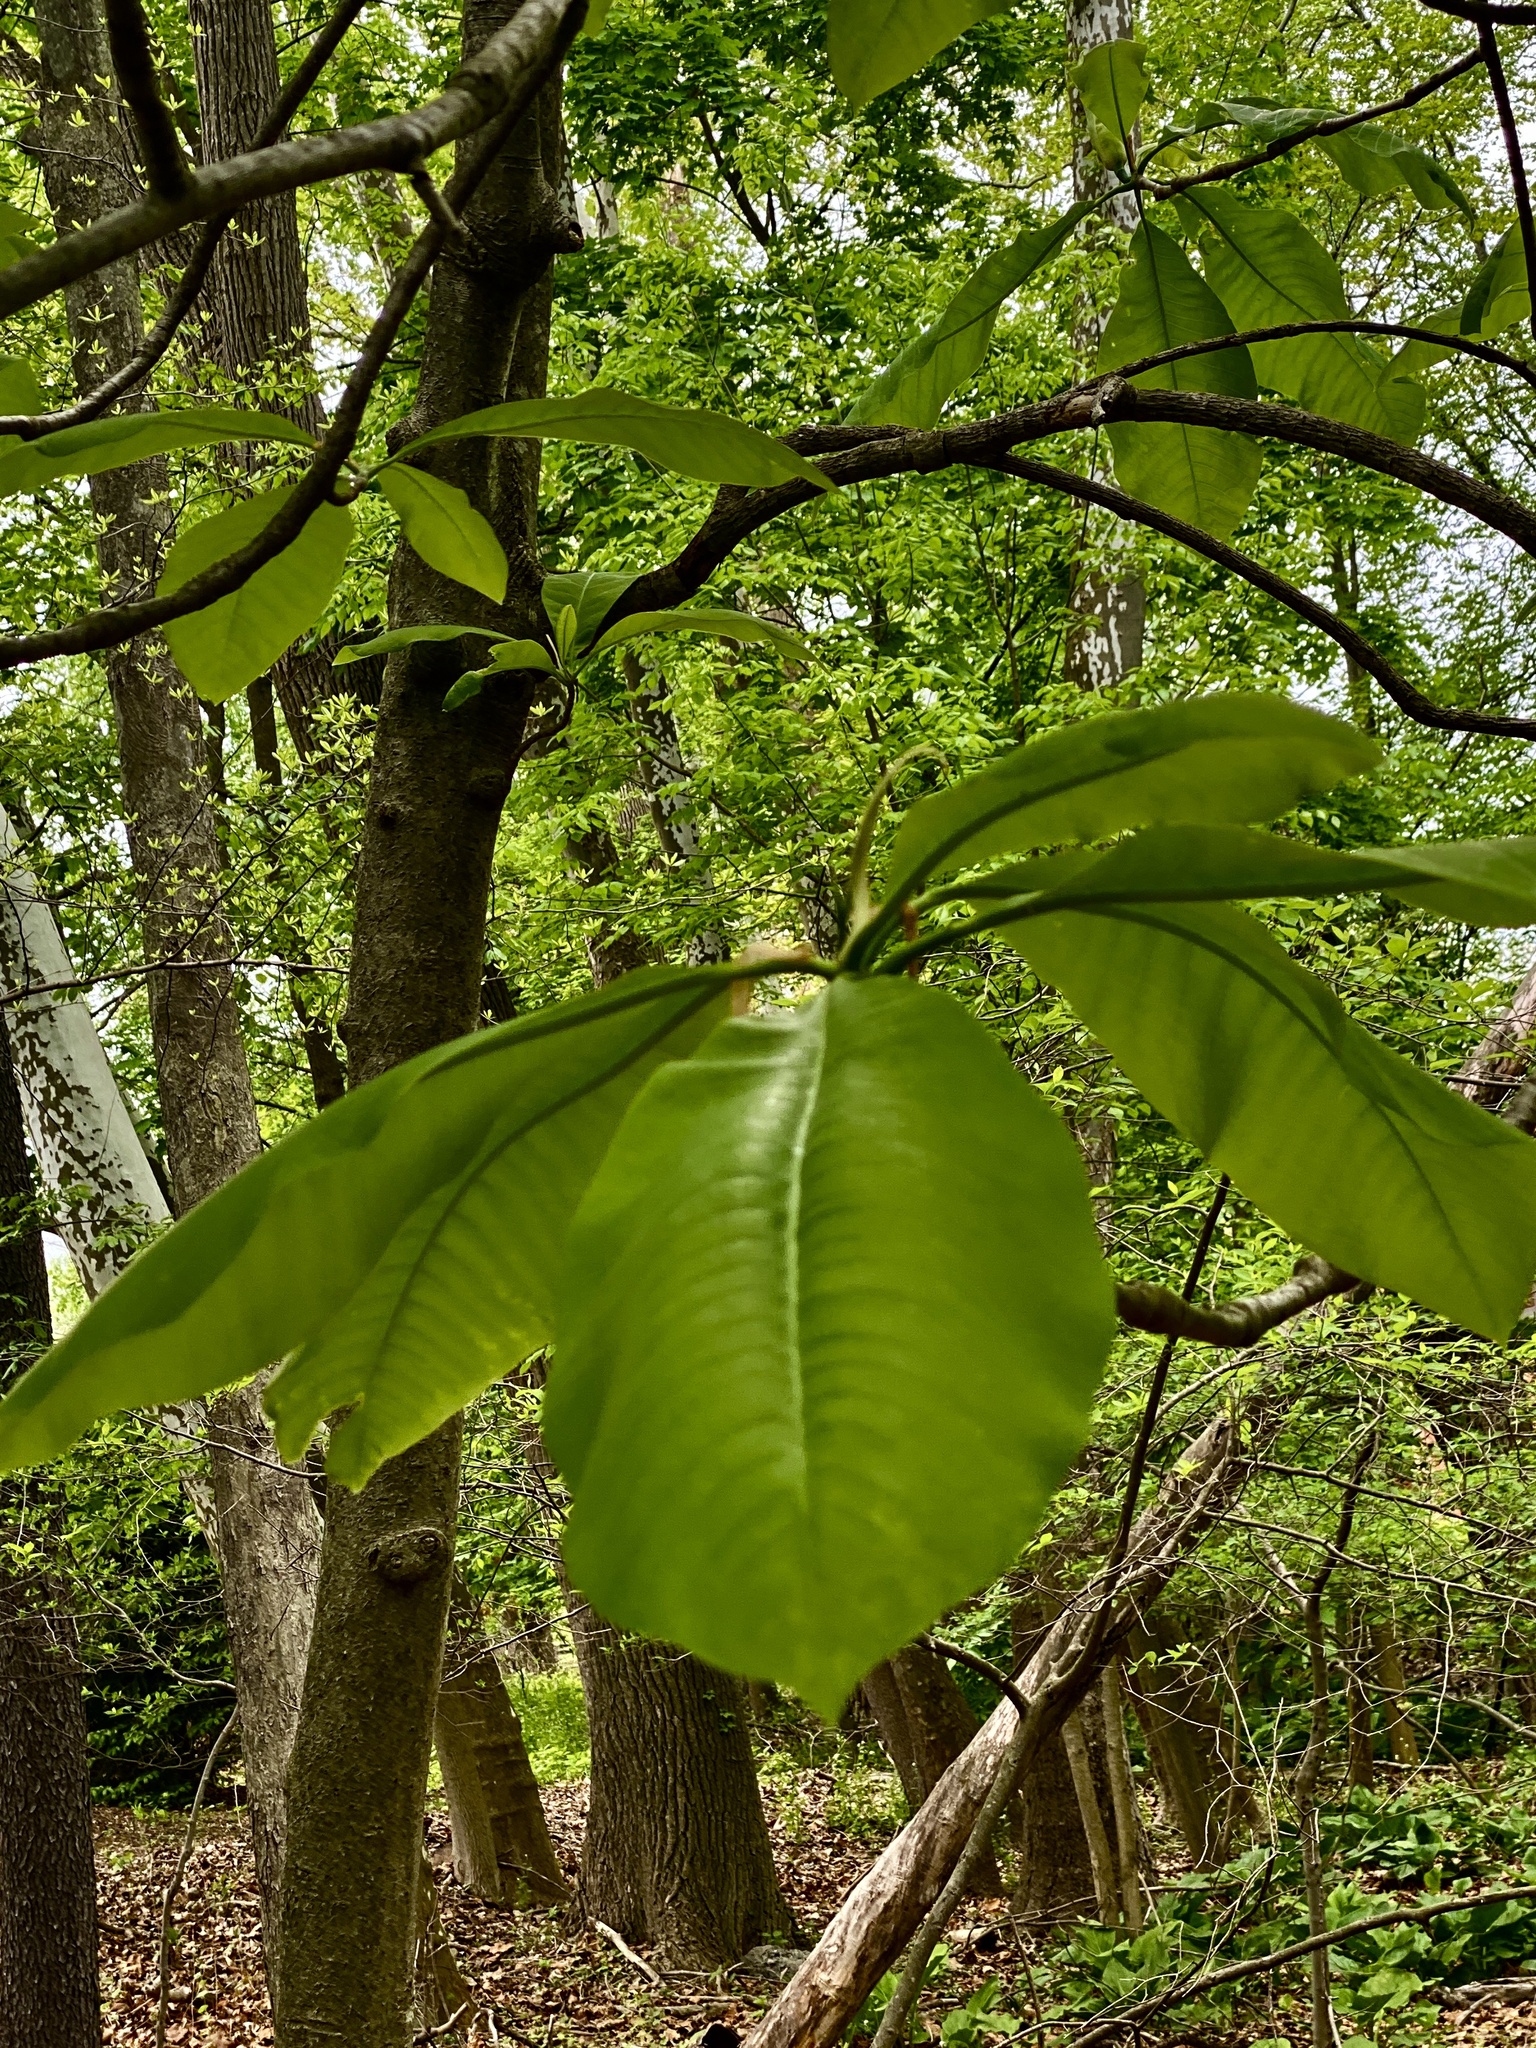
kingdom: Plantae
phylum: Tracheophyta
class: Magnoliopsida
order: Magnoliales
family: Magnoliaceae
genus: Magnolia
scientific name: Magnolia tripetala
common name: Umbrella magnolia
